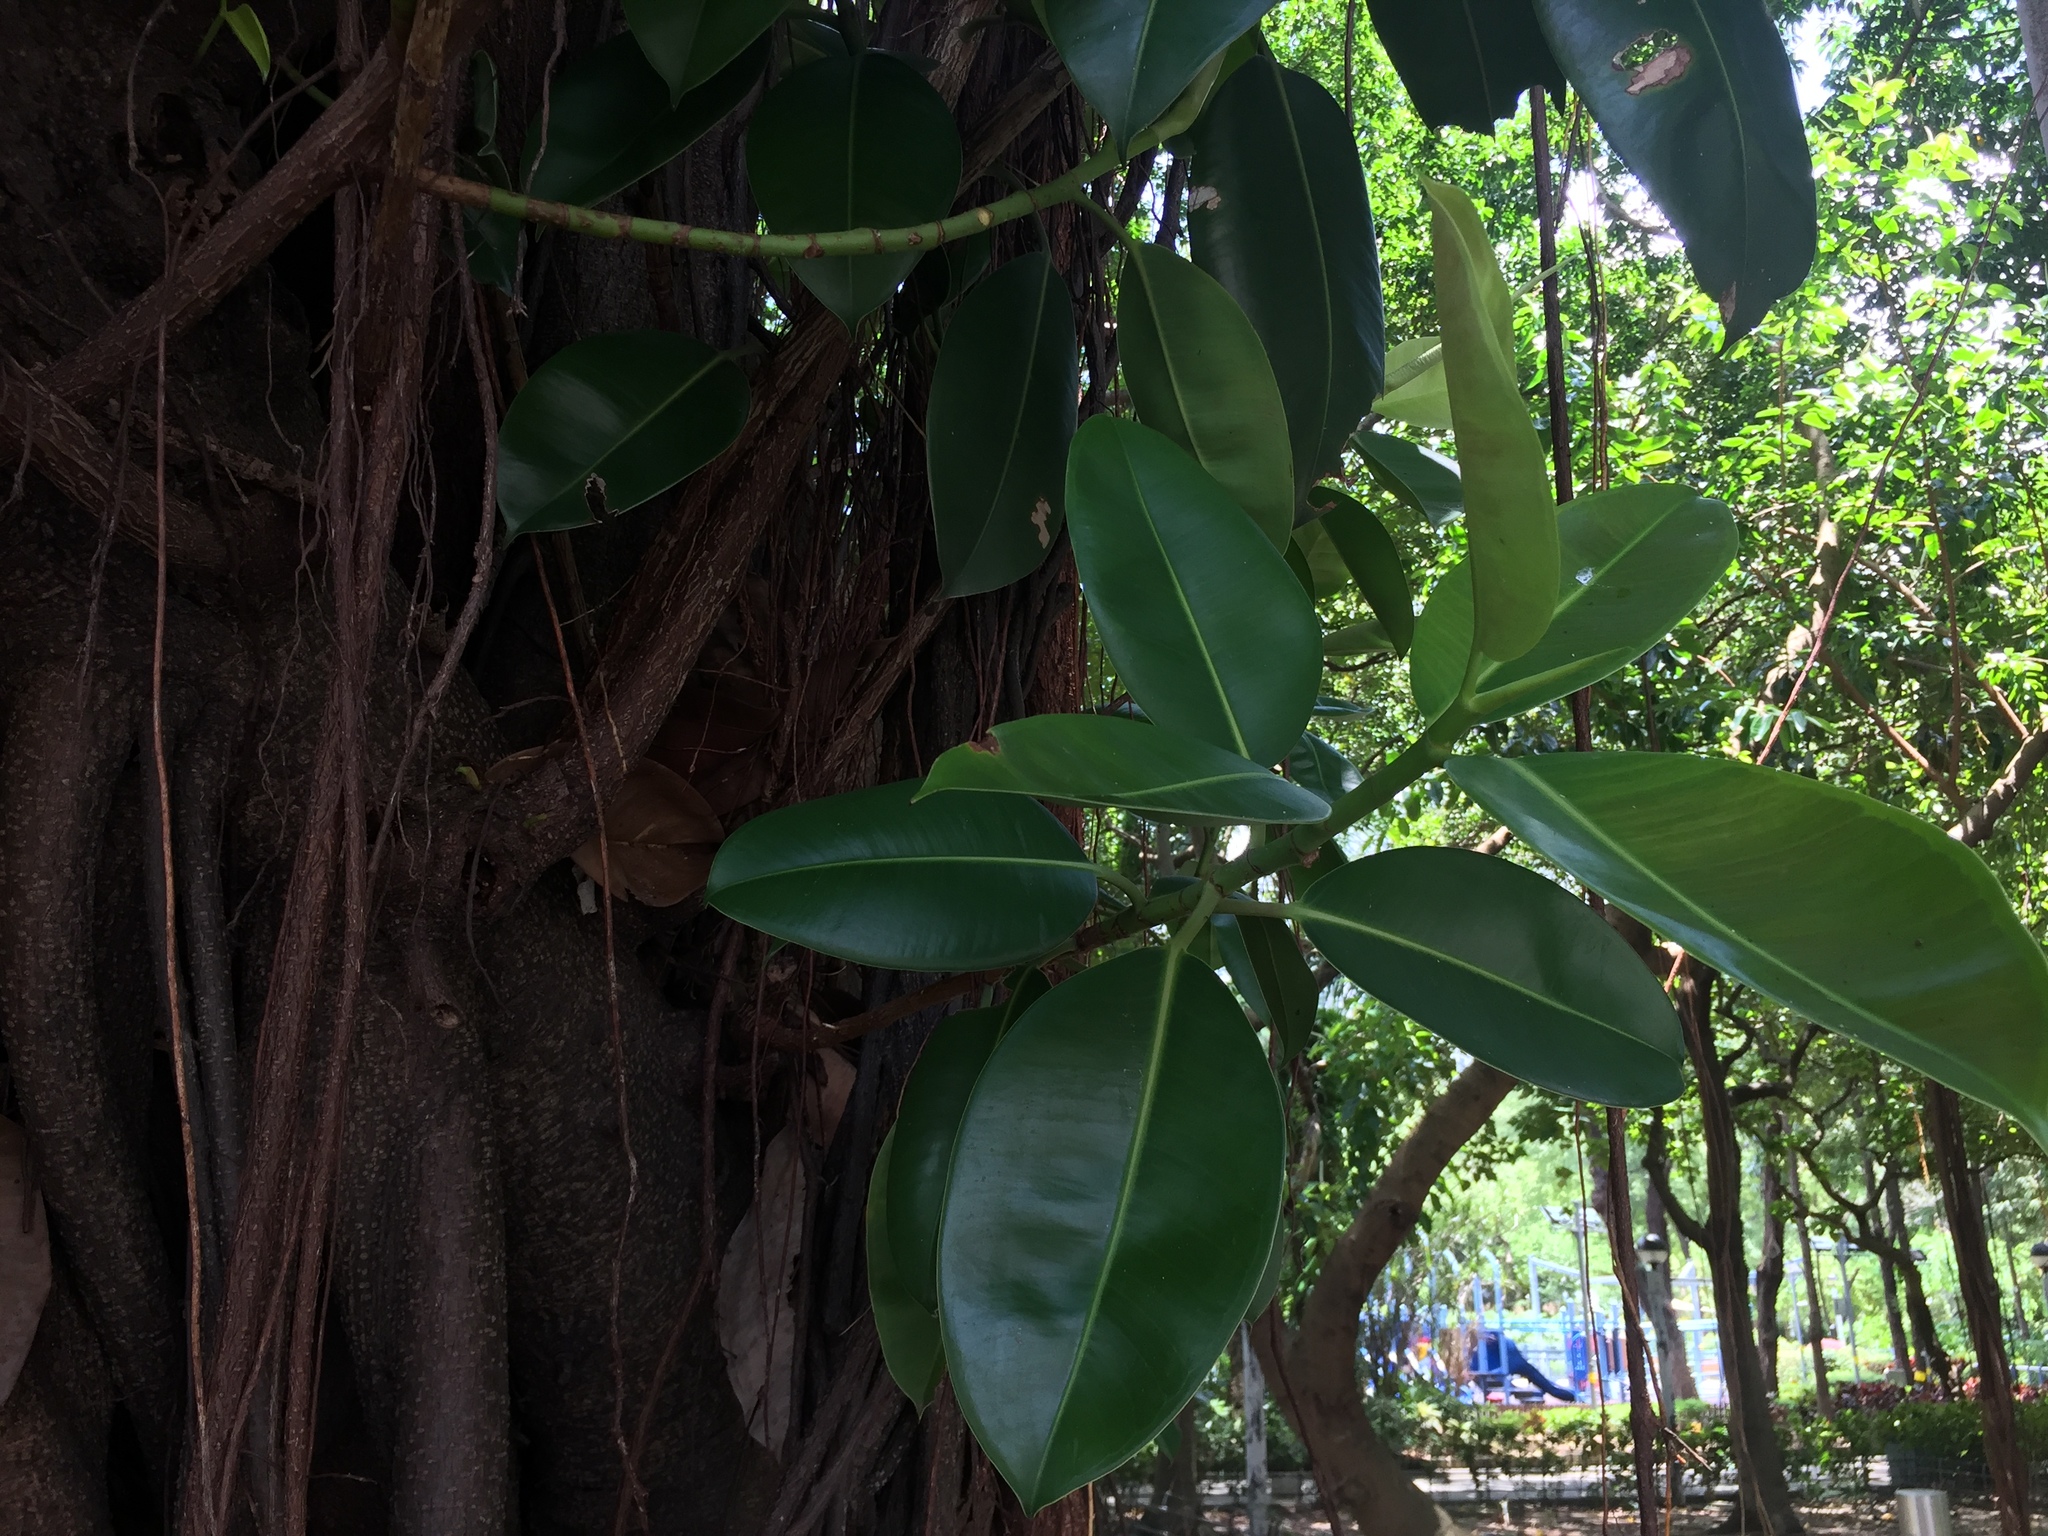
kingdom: Plantae
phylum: Tracheophyta
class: Magnoliopsida
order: Rosales
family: Moraceae
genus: Ficus
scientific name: Ficus elastica
